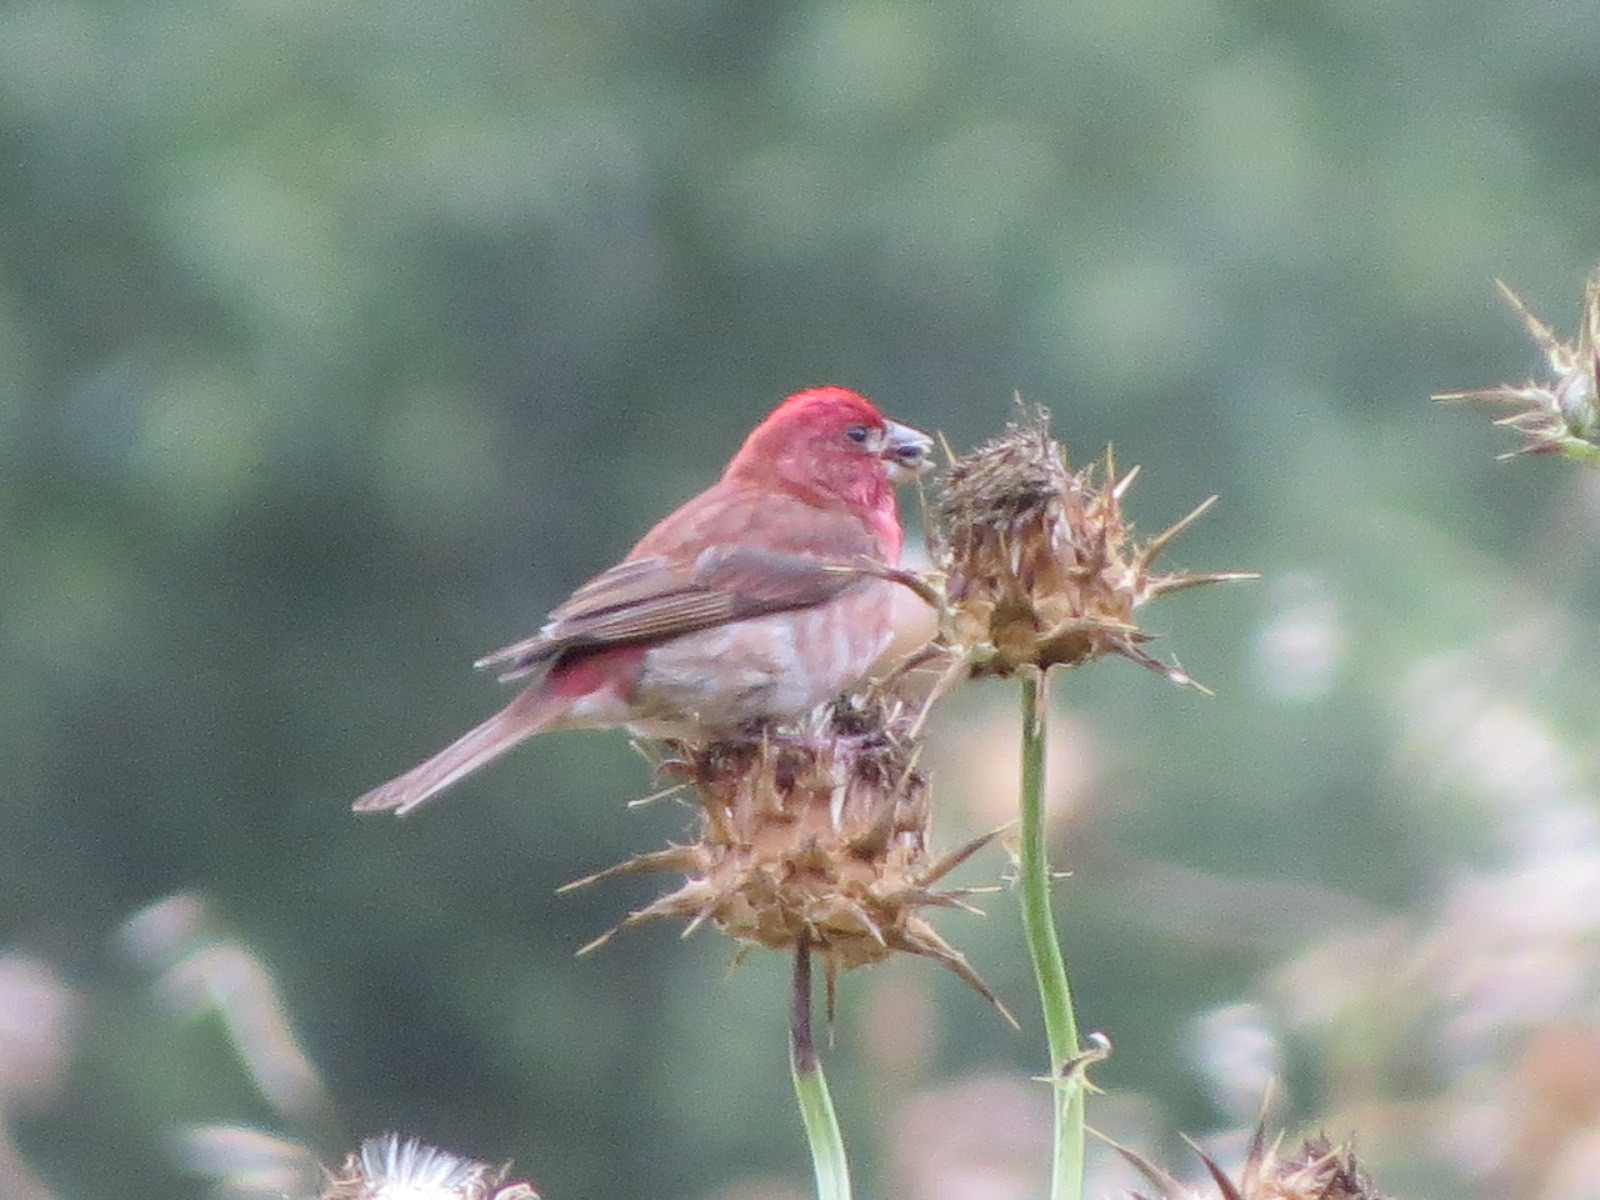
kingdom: Animalia
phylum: Chordata
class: Aves
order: Passeriformes
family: Fringillidae
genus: Haemorhous
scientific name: Haemorhous purpureus
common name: Purple finch
